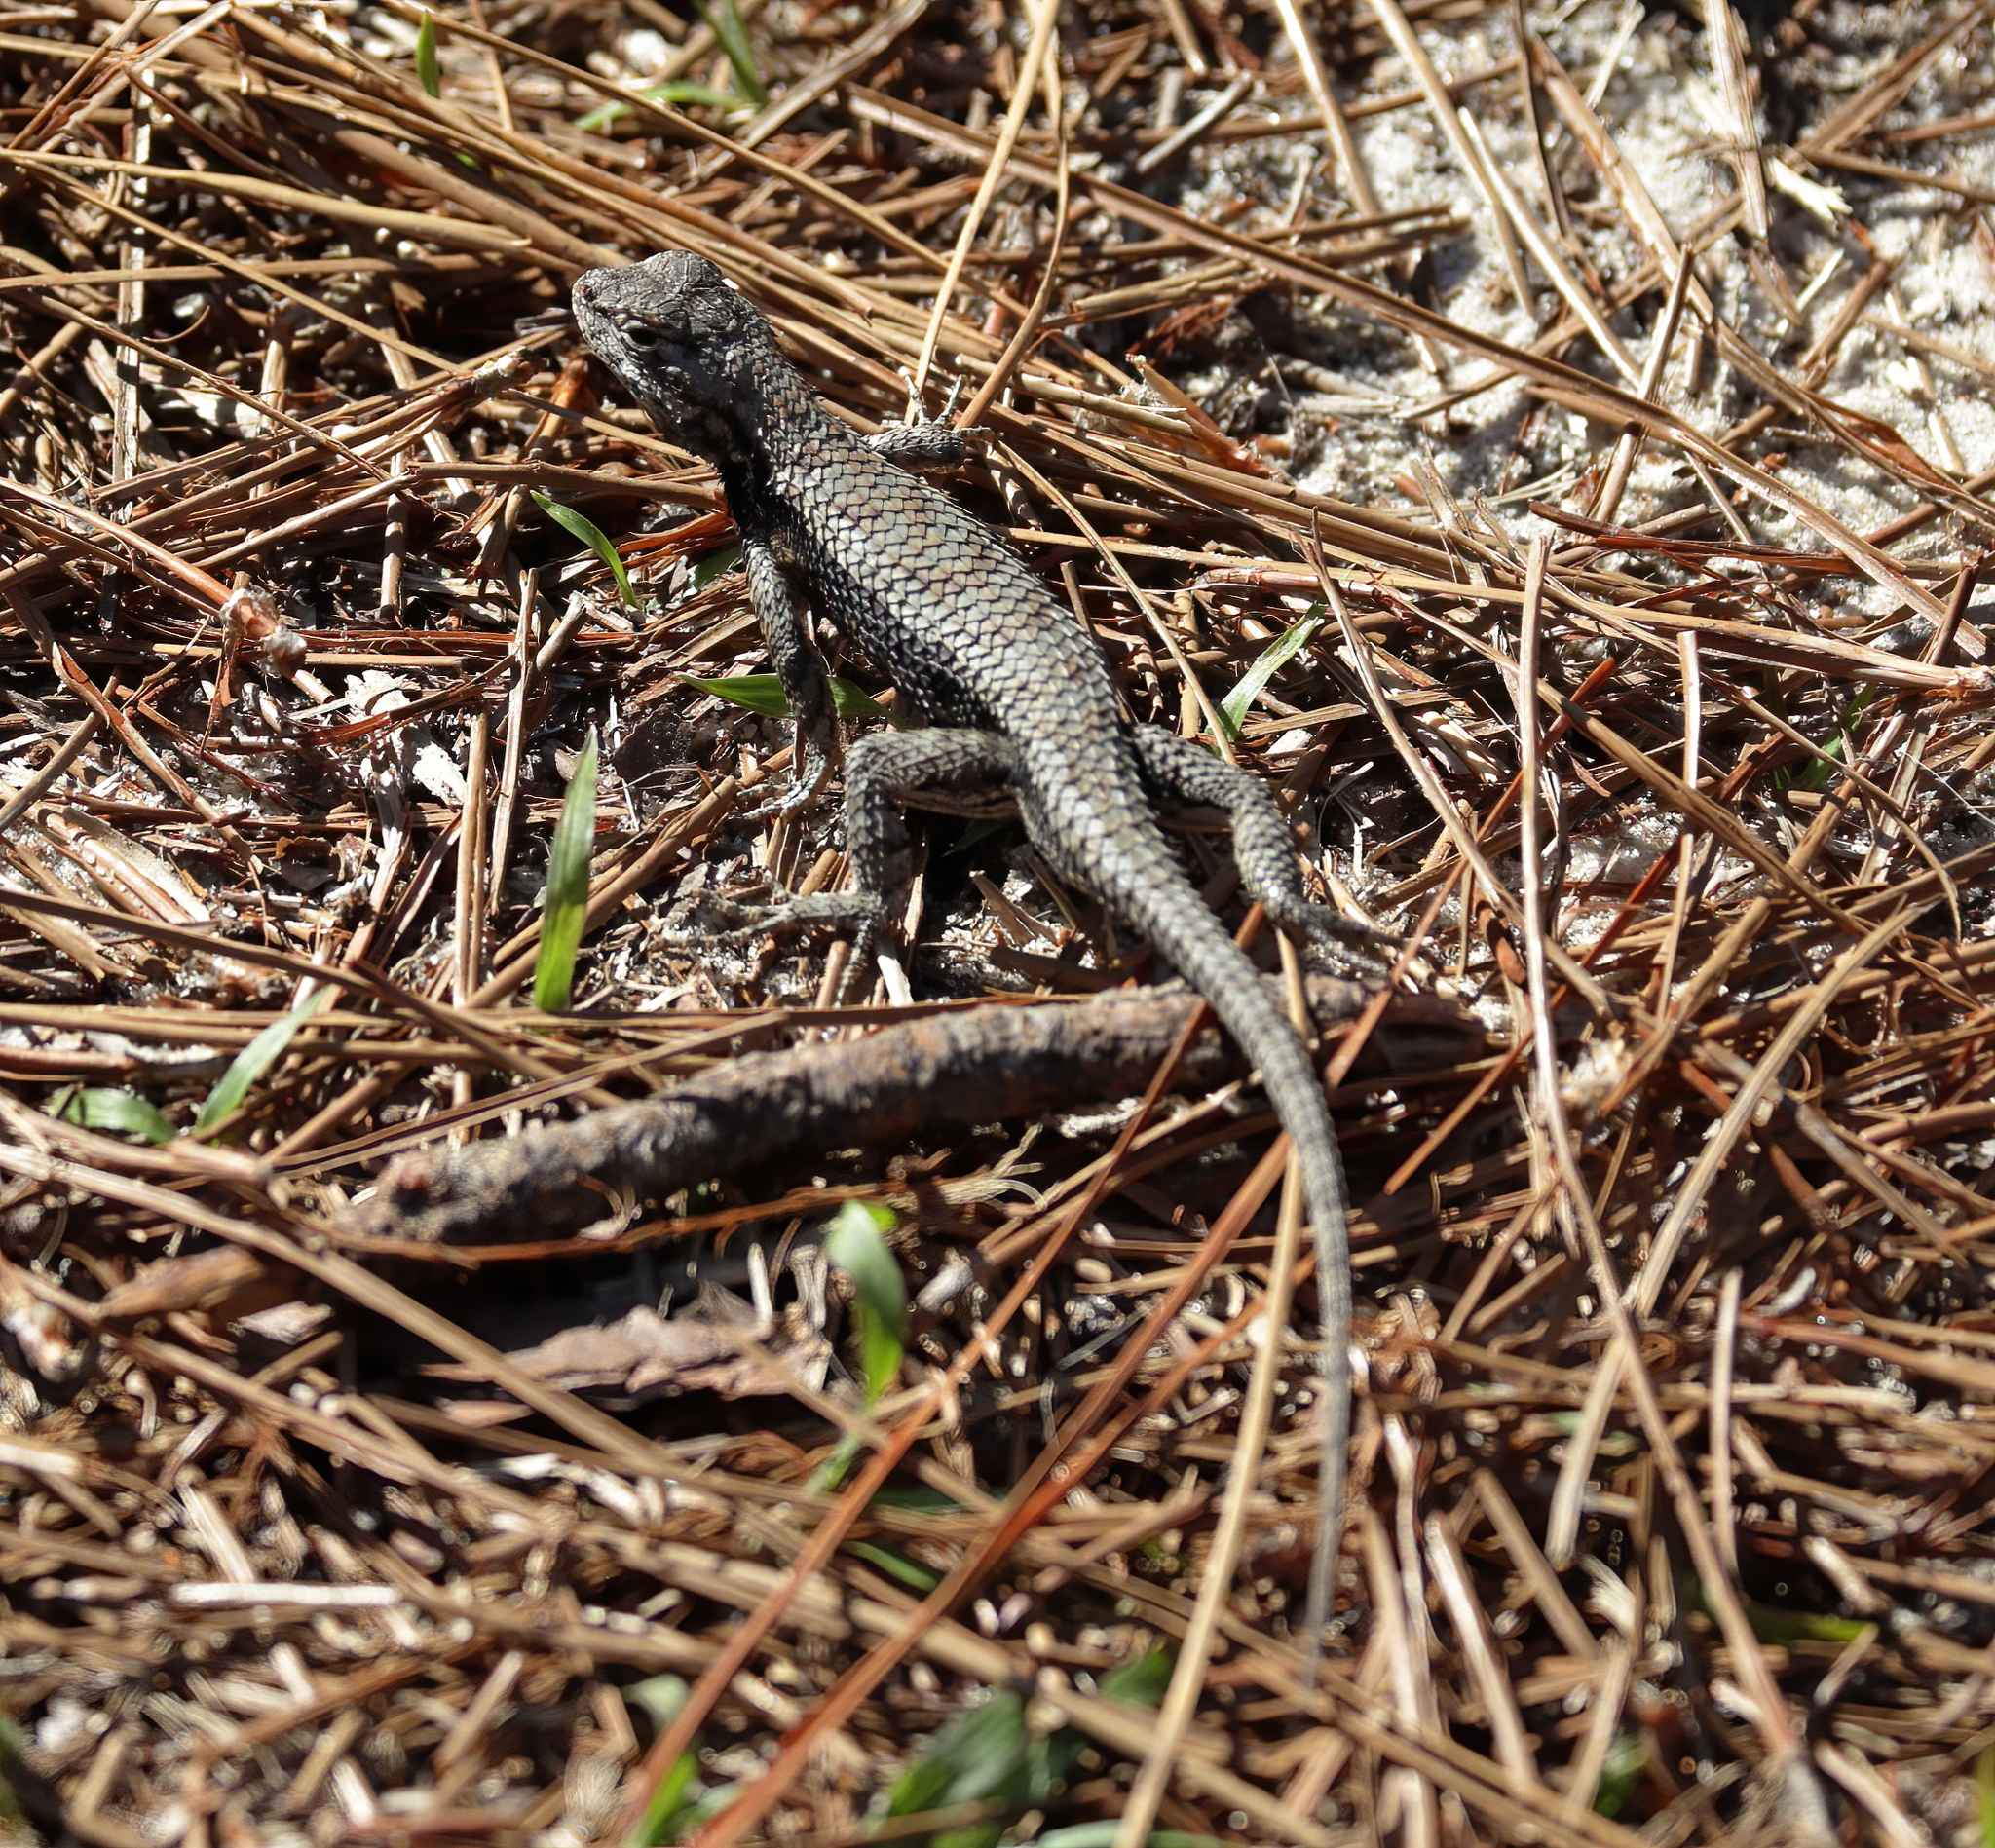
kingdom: Animalia
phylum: Chordata
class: Squamata
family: Phrynosomatidae
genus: Sceloporus
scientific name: Sceloporus undulatus
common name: Eastern fence lizard
